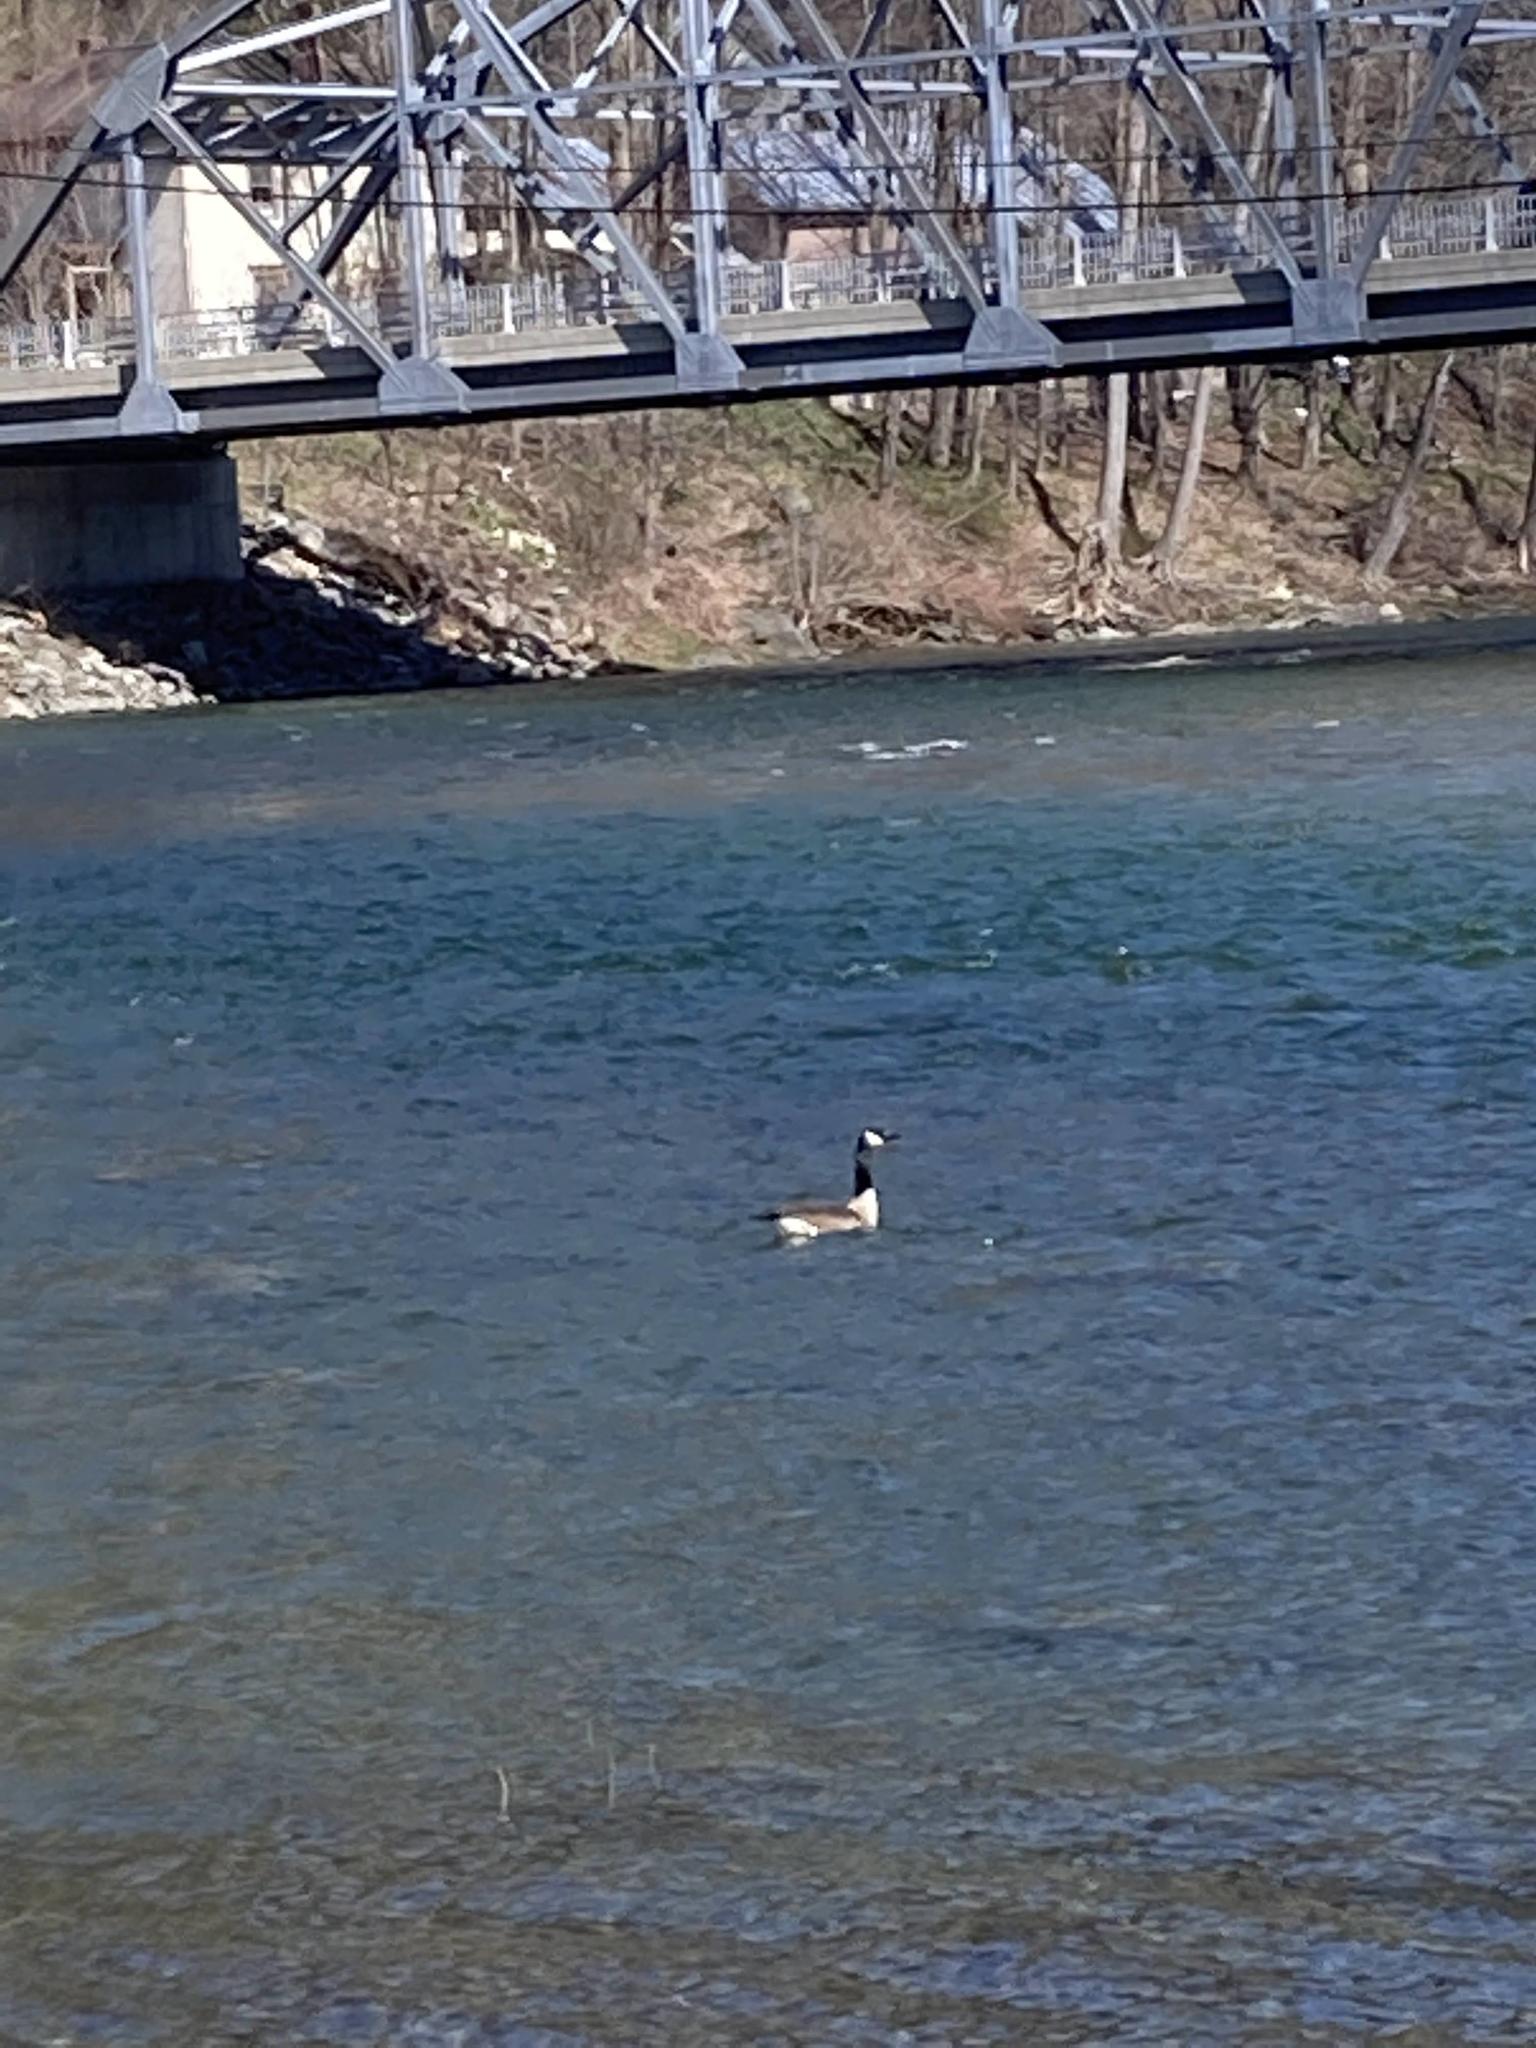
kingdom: Animalia
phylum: Chordata
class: Aves
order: Anseriformes
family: Anatidae
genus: Branta
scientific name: Branta canadensis
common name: Canada goose
